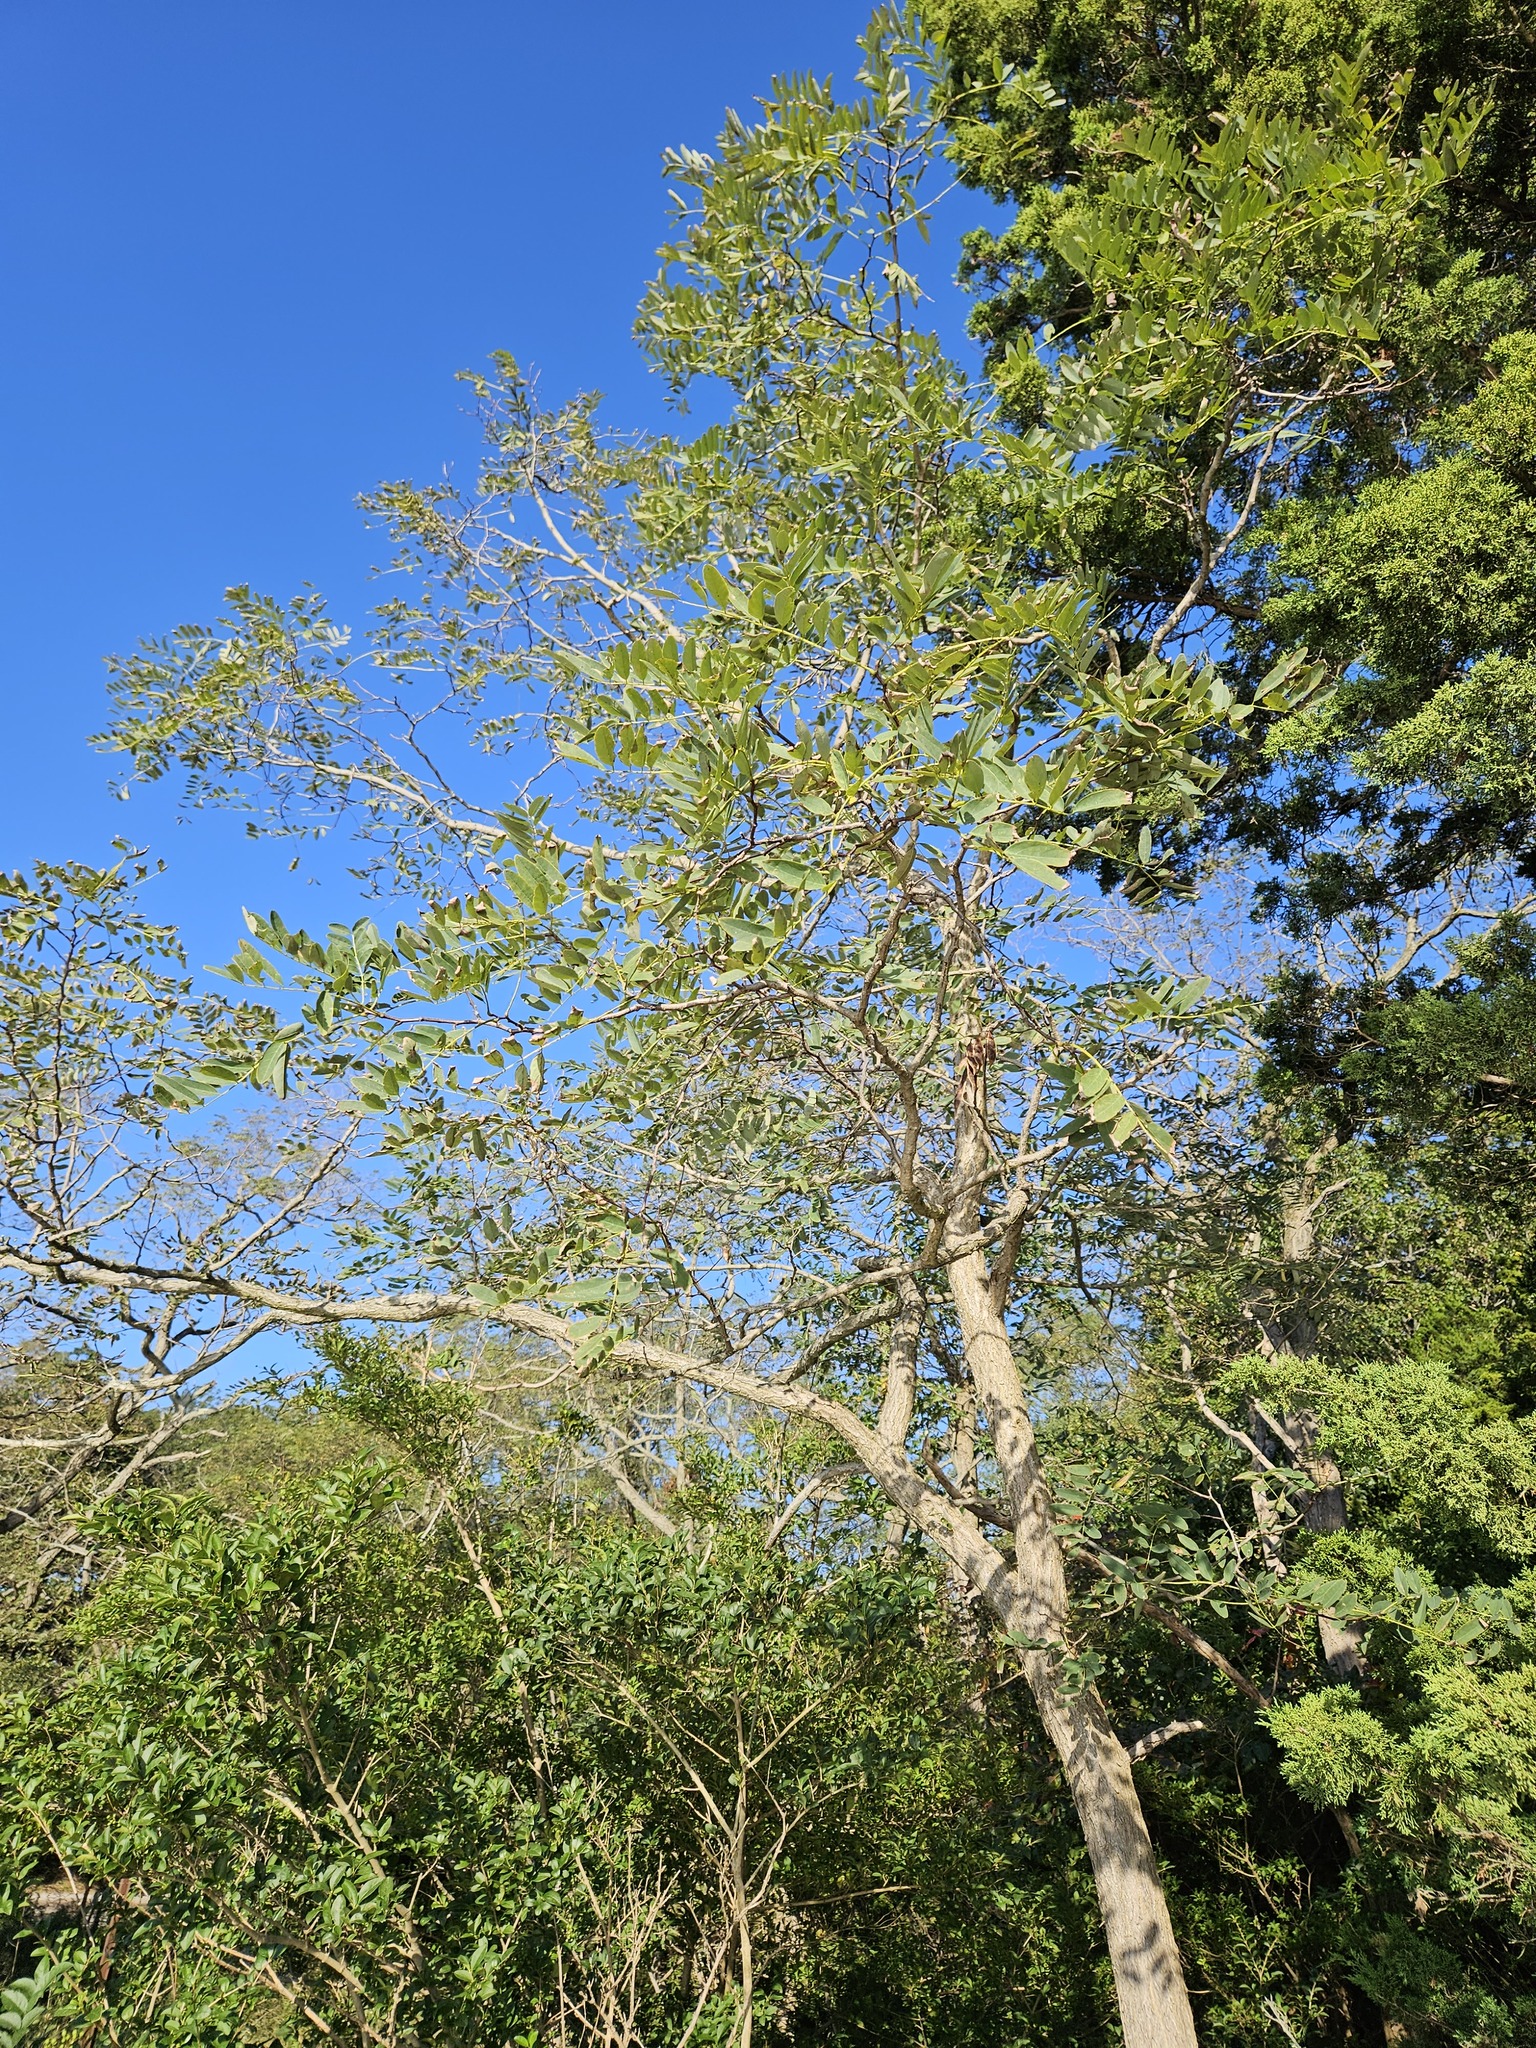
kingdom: Plantae
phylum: Tracheophyta
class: Magnoliopsida
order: Fabales
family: Fabaceae
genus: Robinia
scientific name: Robinia pseudoacacia
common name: Black locust
